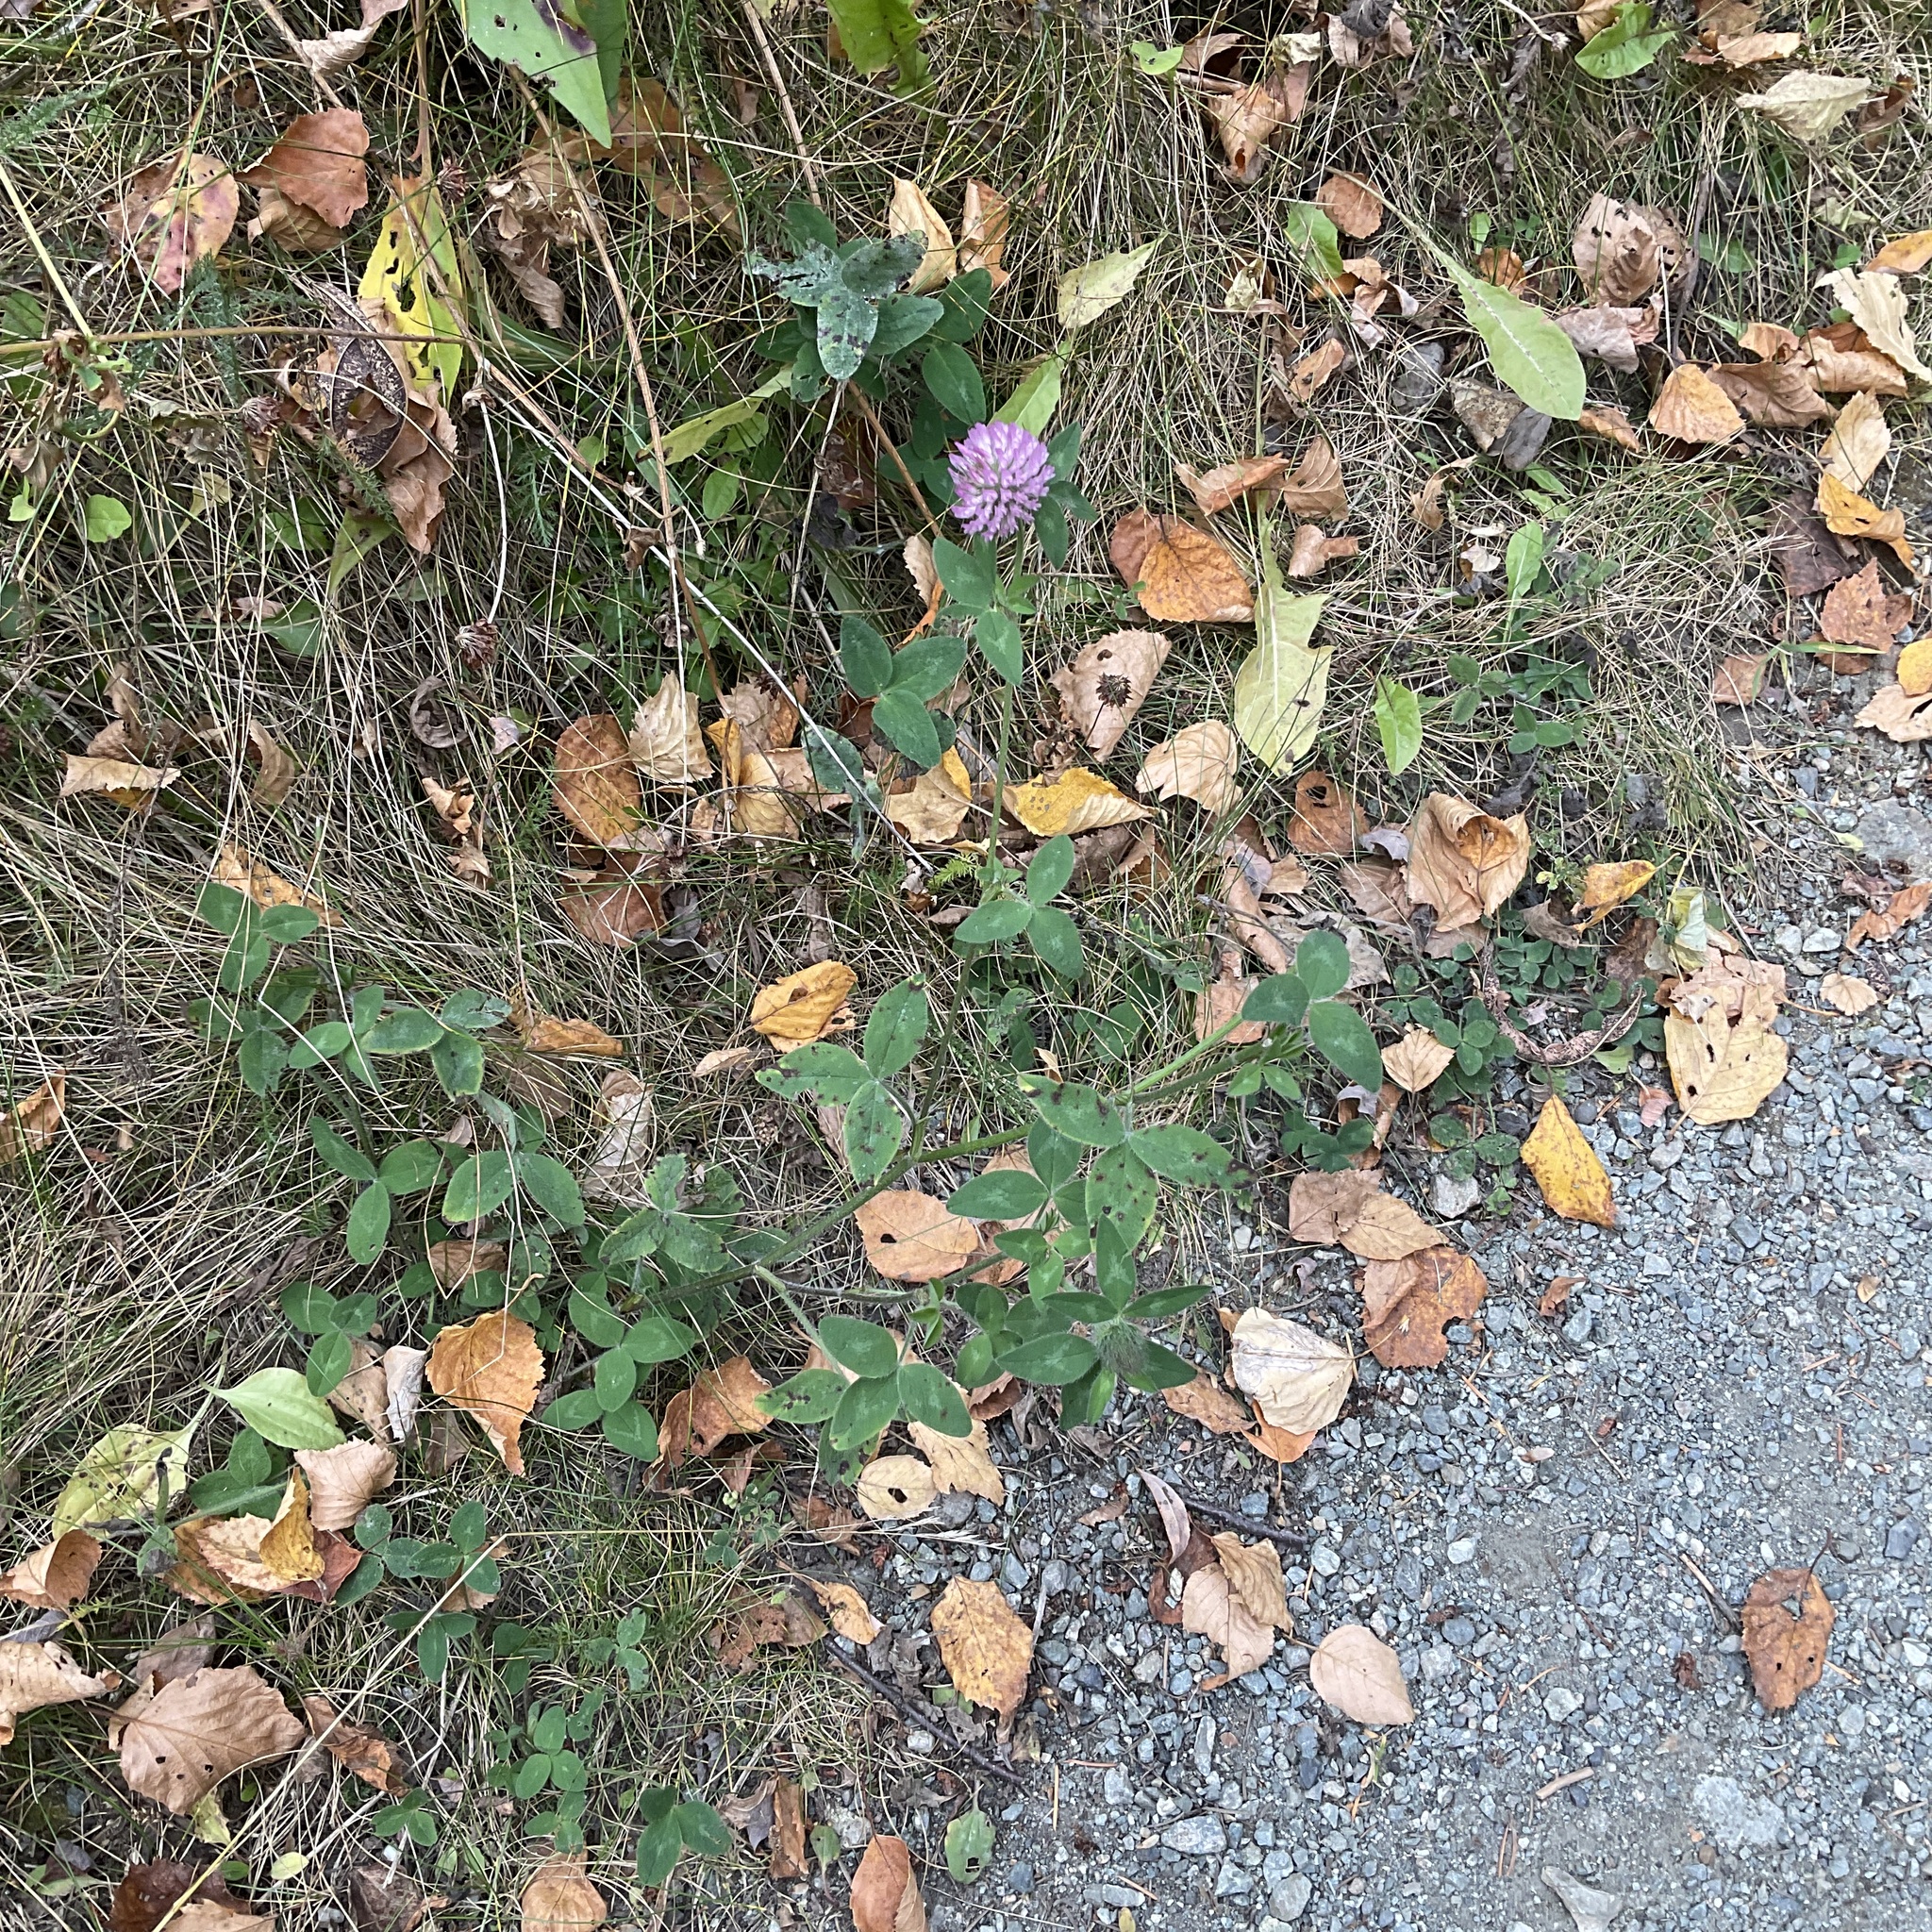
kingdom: Plantae
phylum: Tracheophyta
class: Magnoliopsida
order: Fabales
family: Fabaceae
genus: Trifolium
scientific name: Trifolium pratense
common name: Red clover
